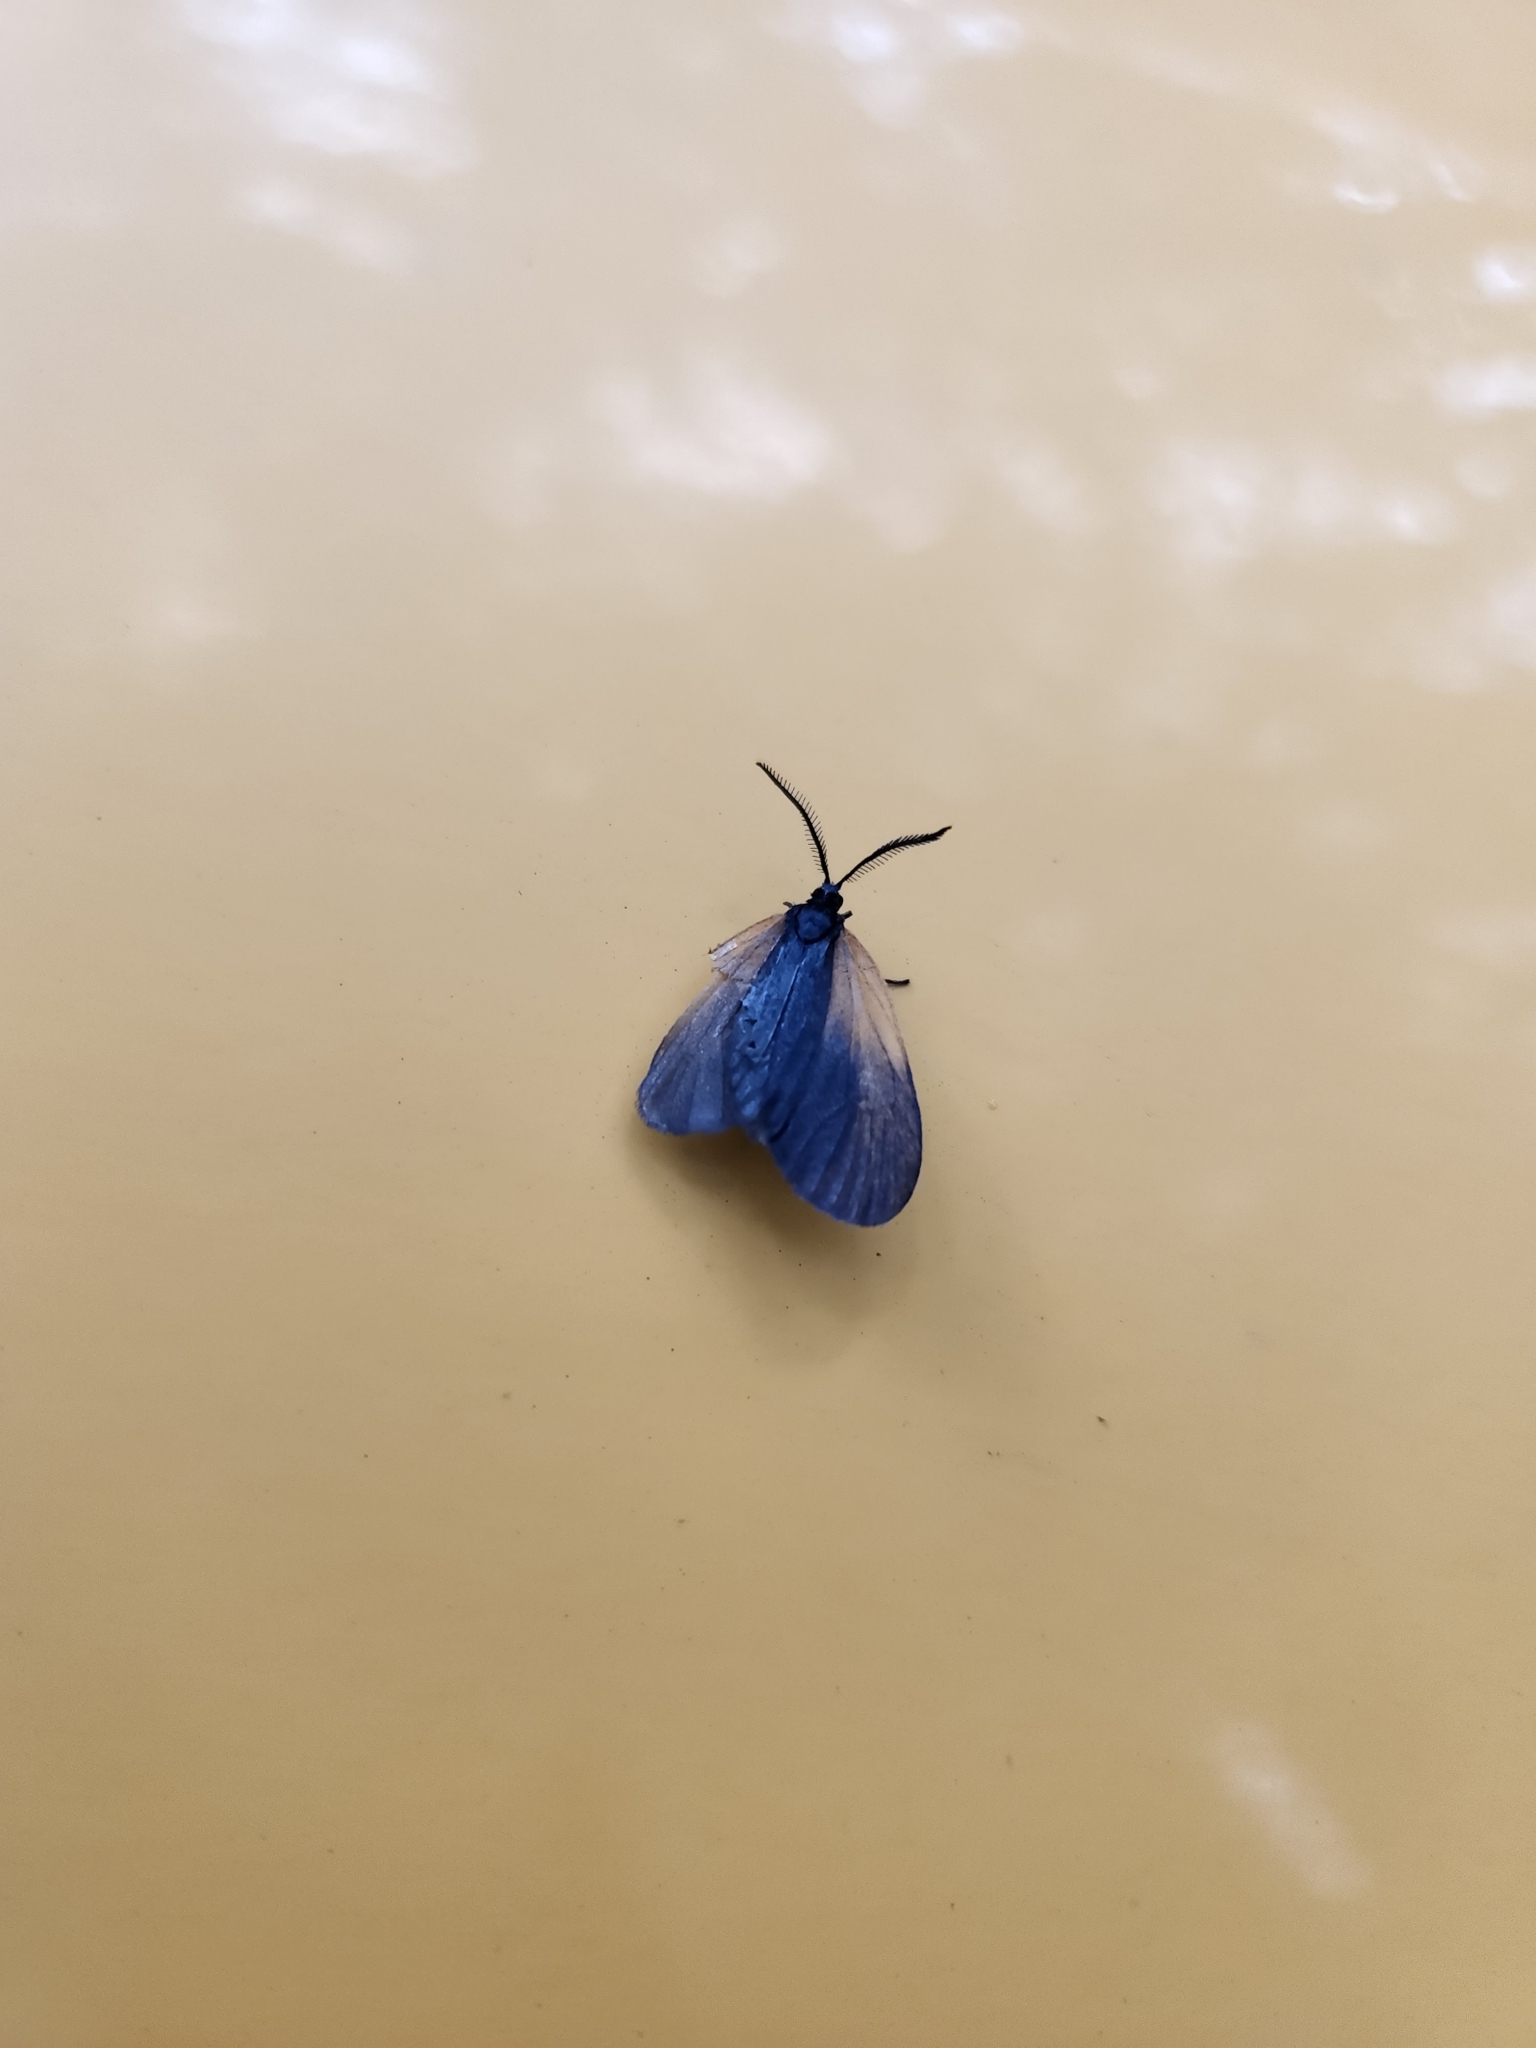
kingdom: Animalia
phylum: Arthropoda
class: Insecta
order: Lepidoptera
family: Zygaenidae
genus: Malthaca
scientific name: Malthaca dimidiata
